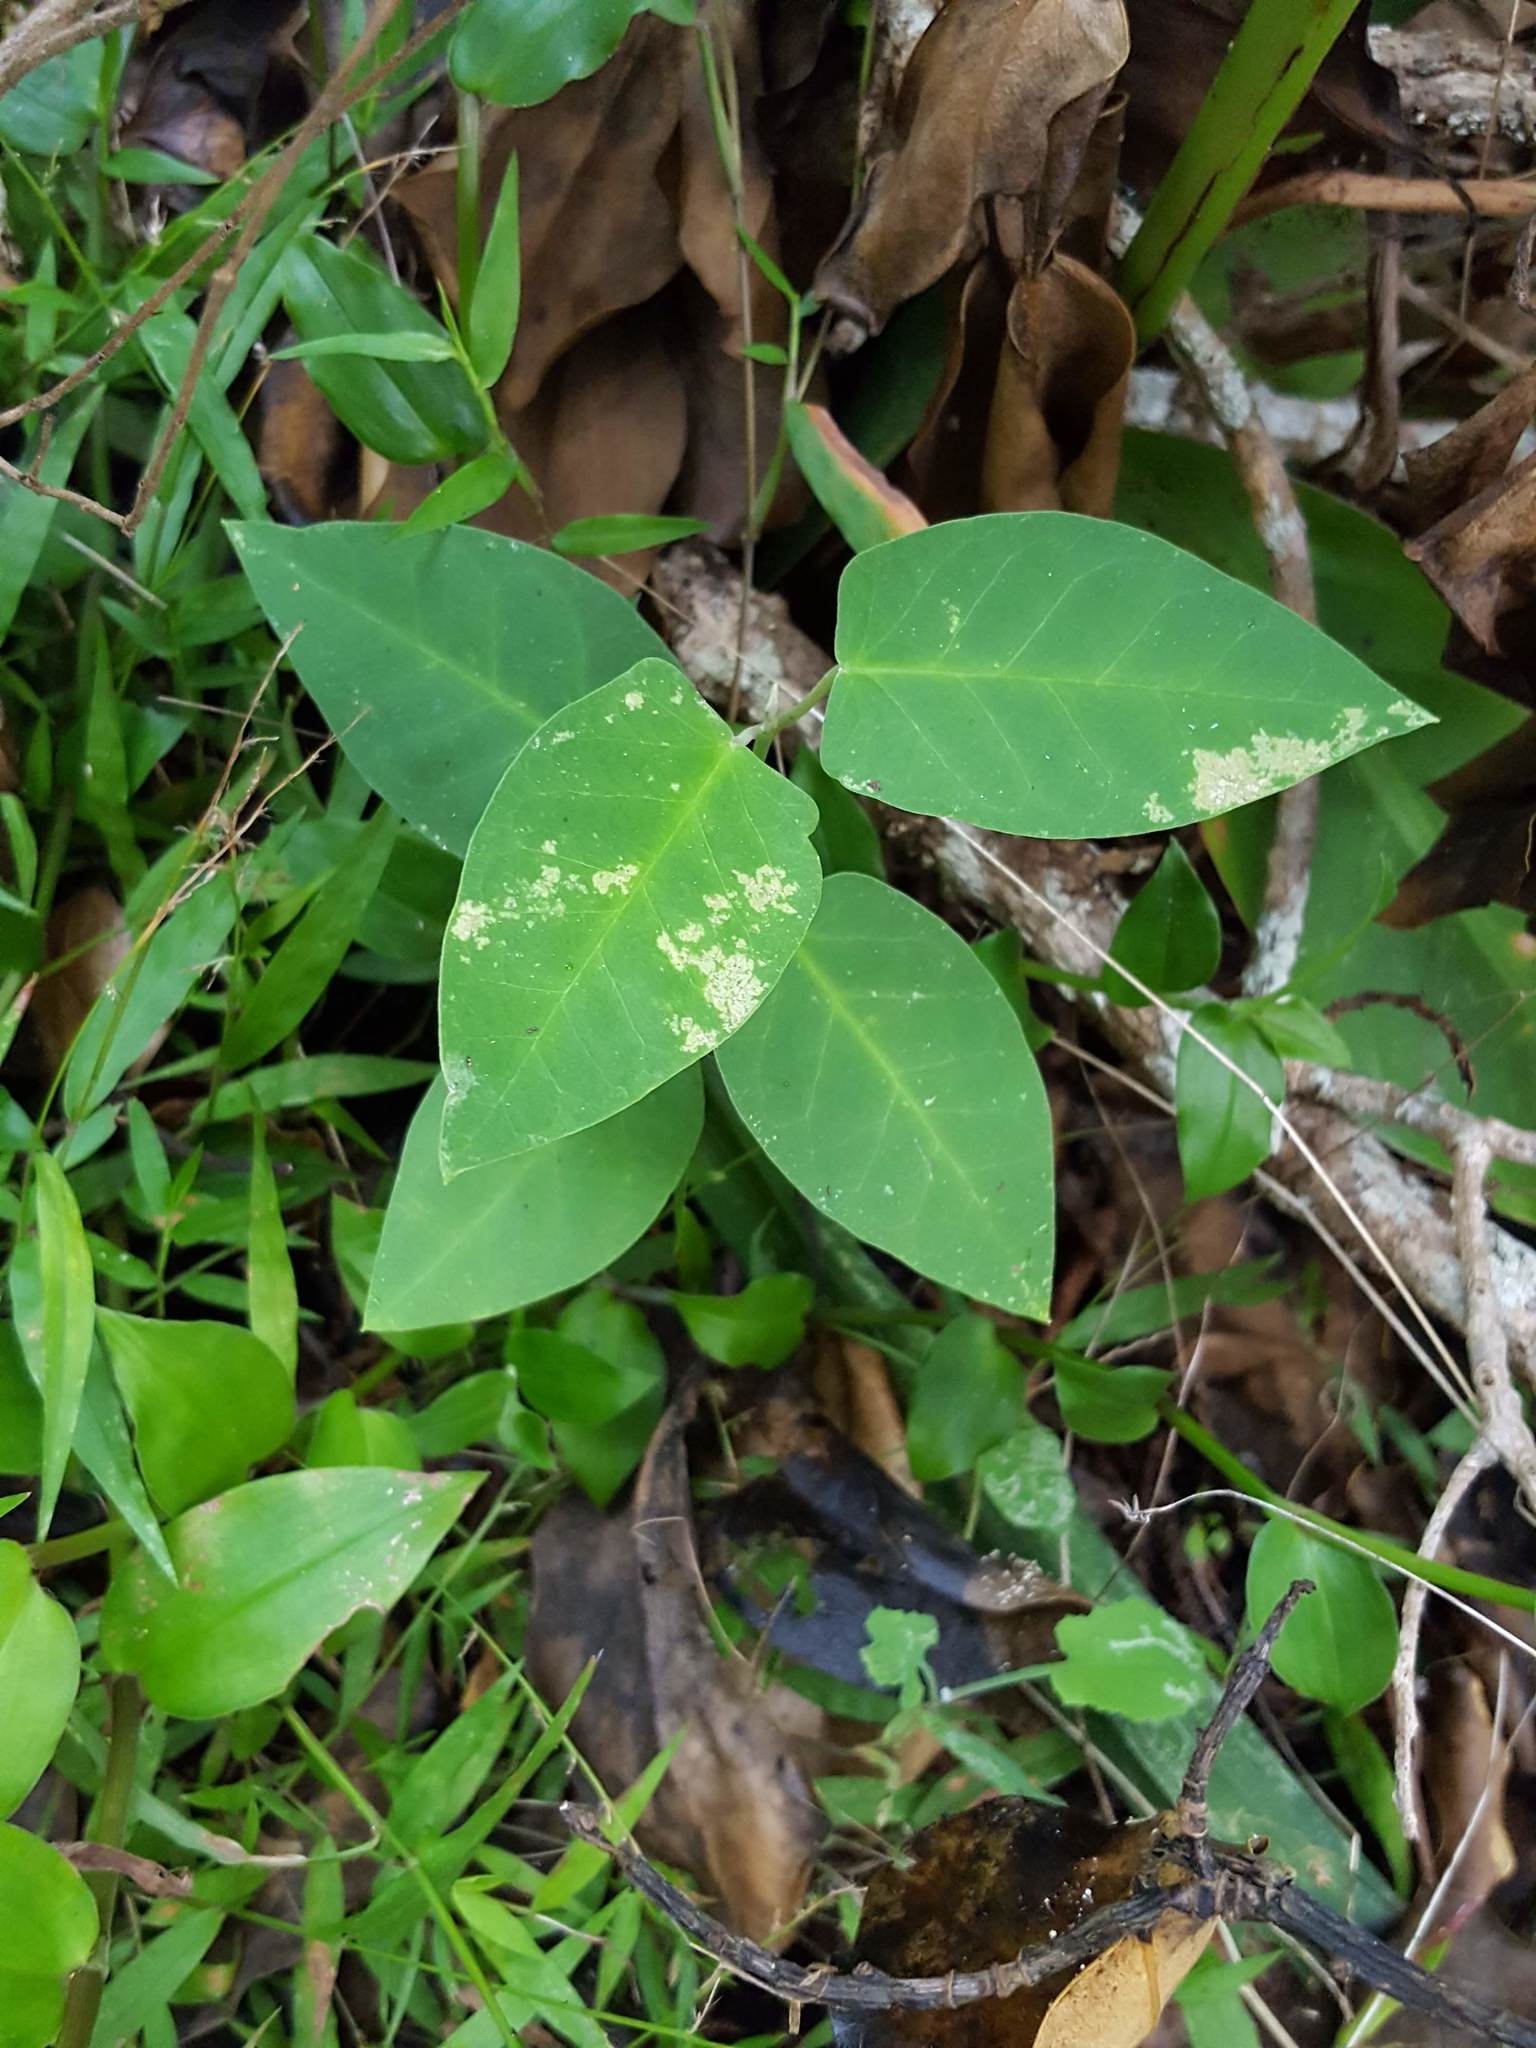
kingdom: Plantae
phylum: Tracheophyta
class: Magnoliopsida
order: Gentianales
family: Apocynaceae
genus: Araujia
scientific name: Araujia sericifera
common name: White bladderflower
